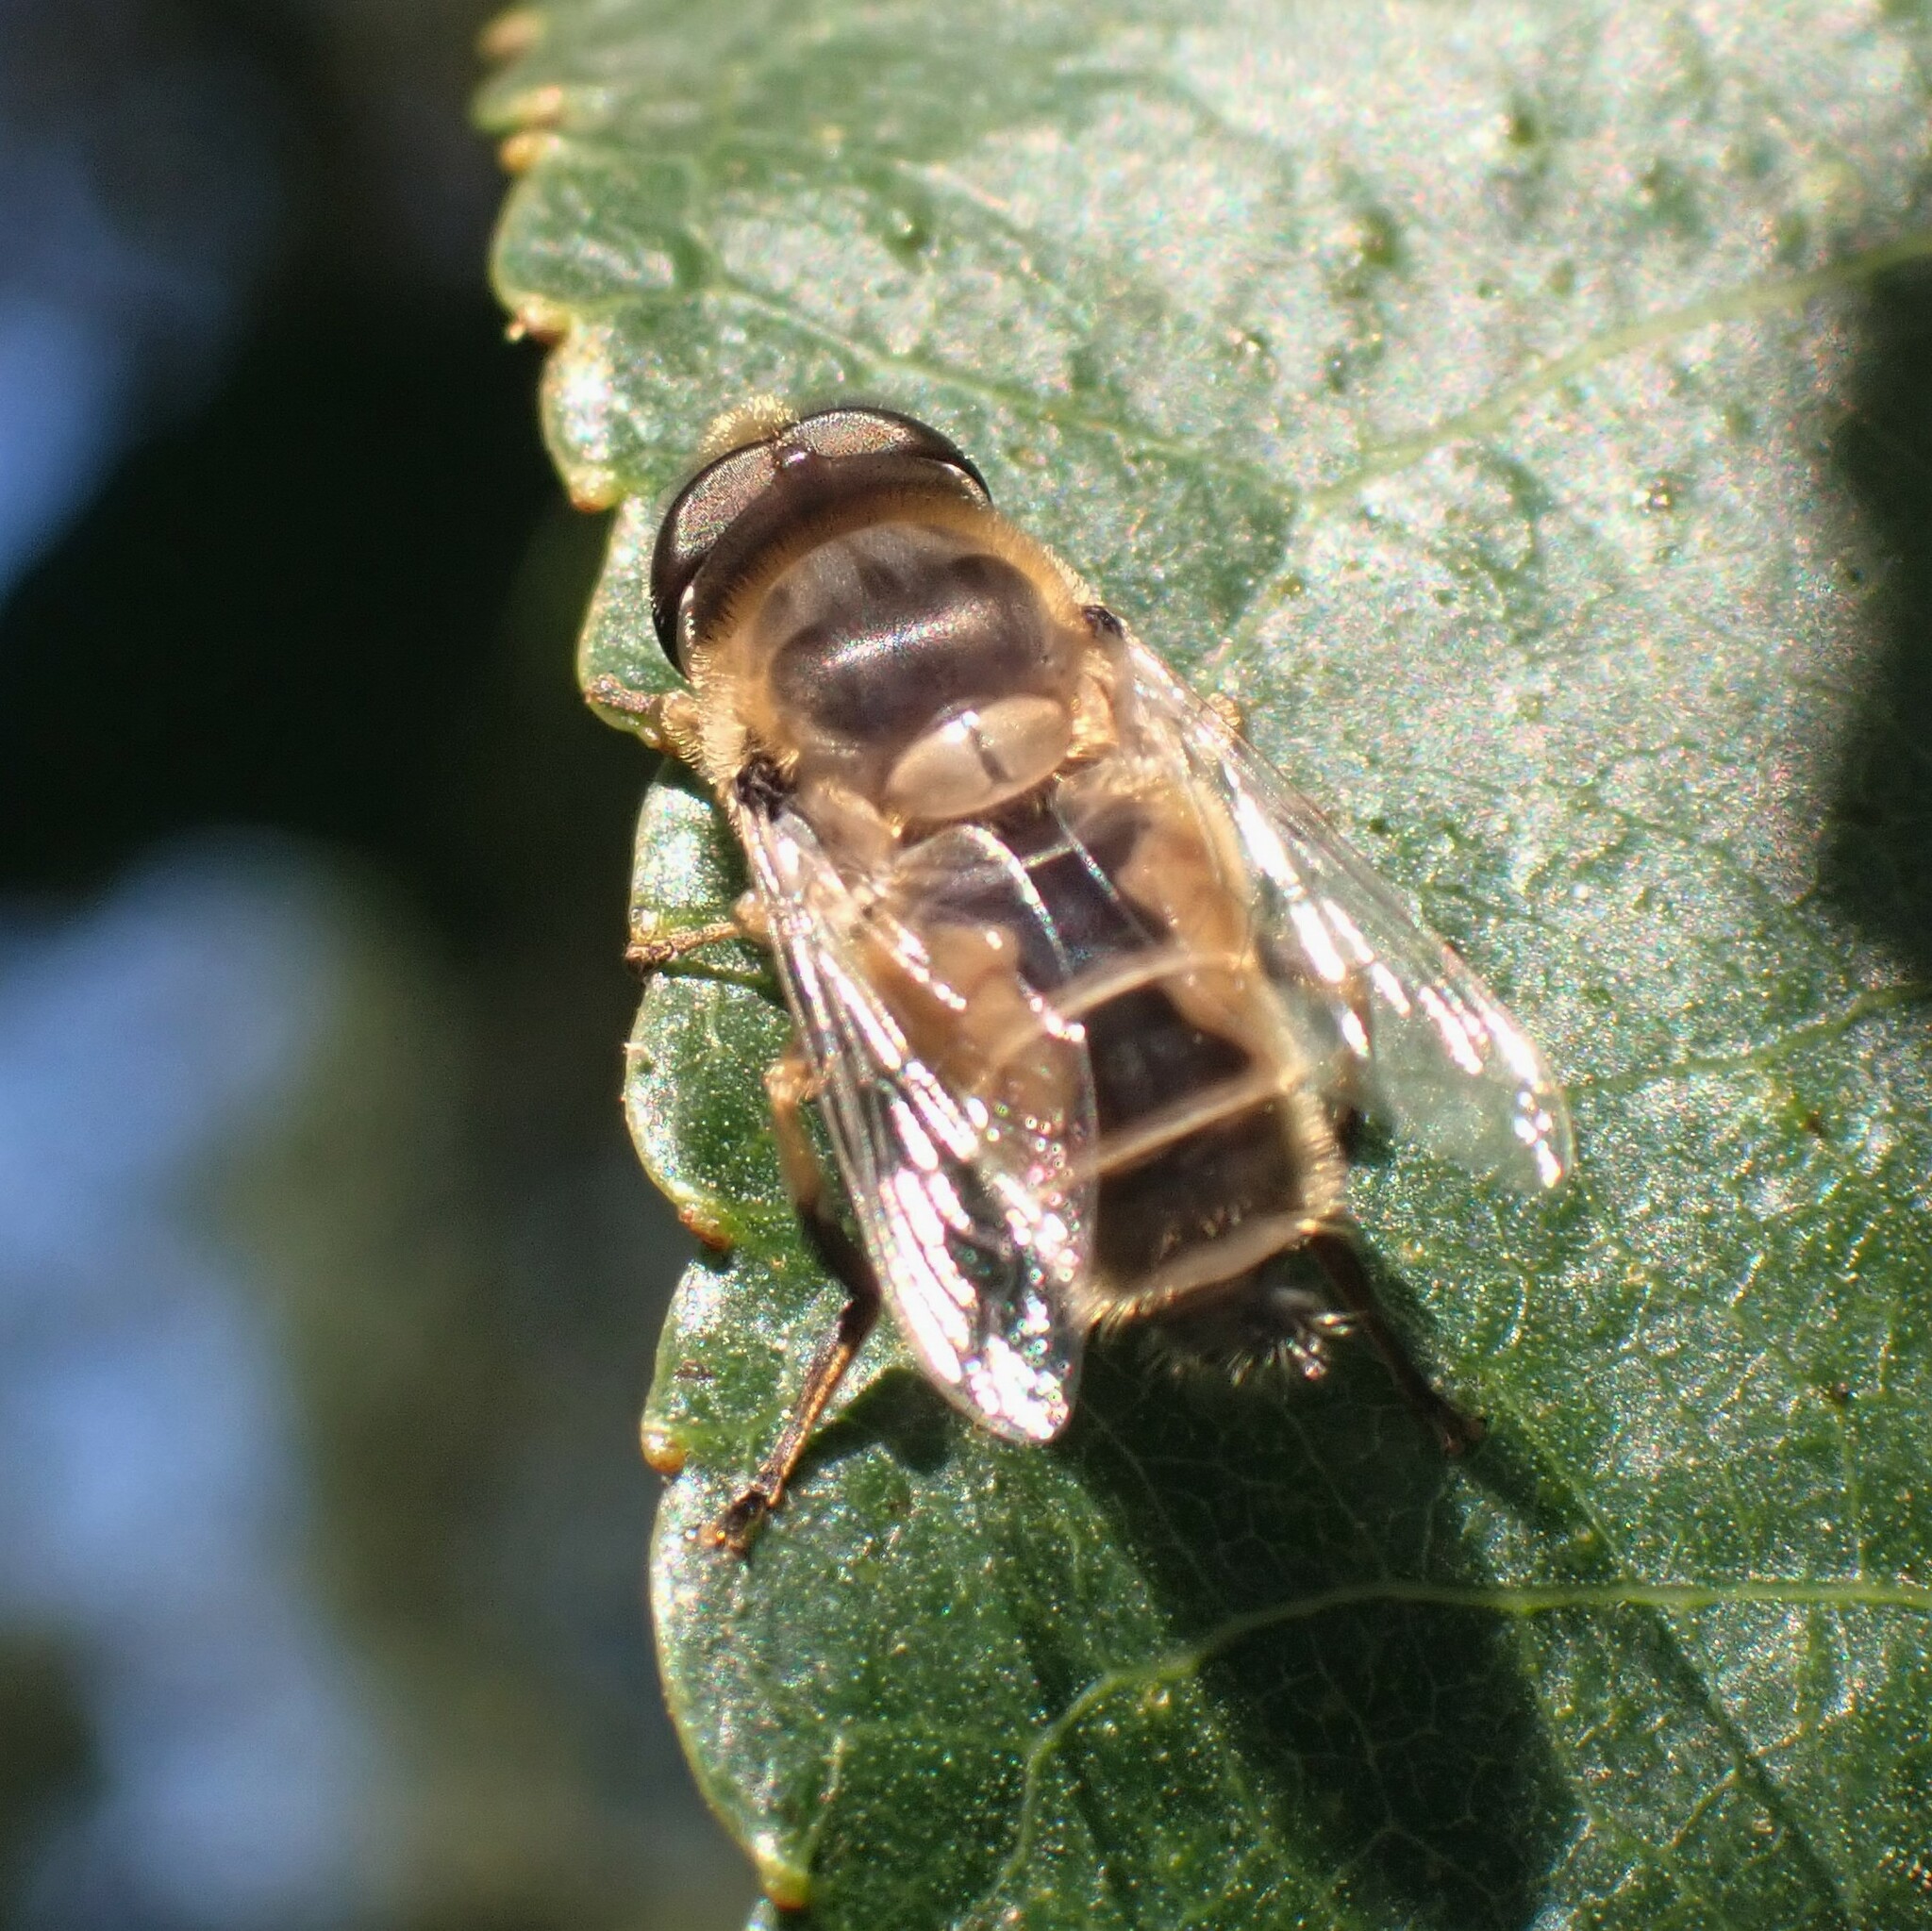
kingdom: Animalia
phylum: Arthropoda
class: Insecta
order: Diptera
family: Syrphidae
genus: Eristalis
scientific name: Eristalis arbustorum
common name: Hover fly
